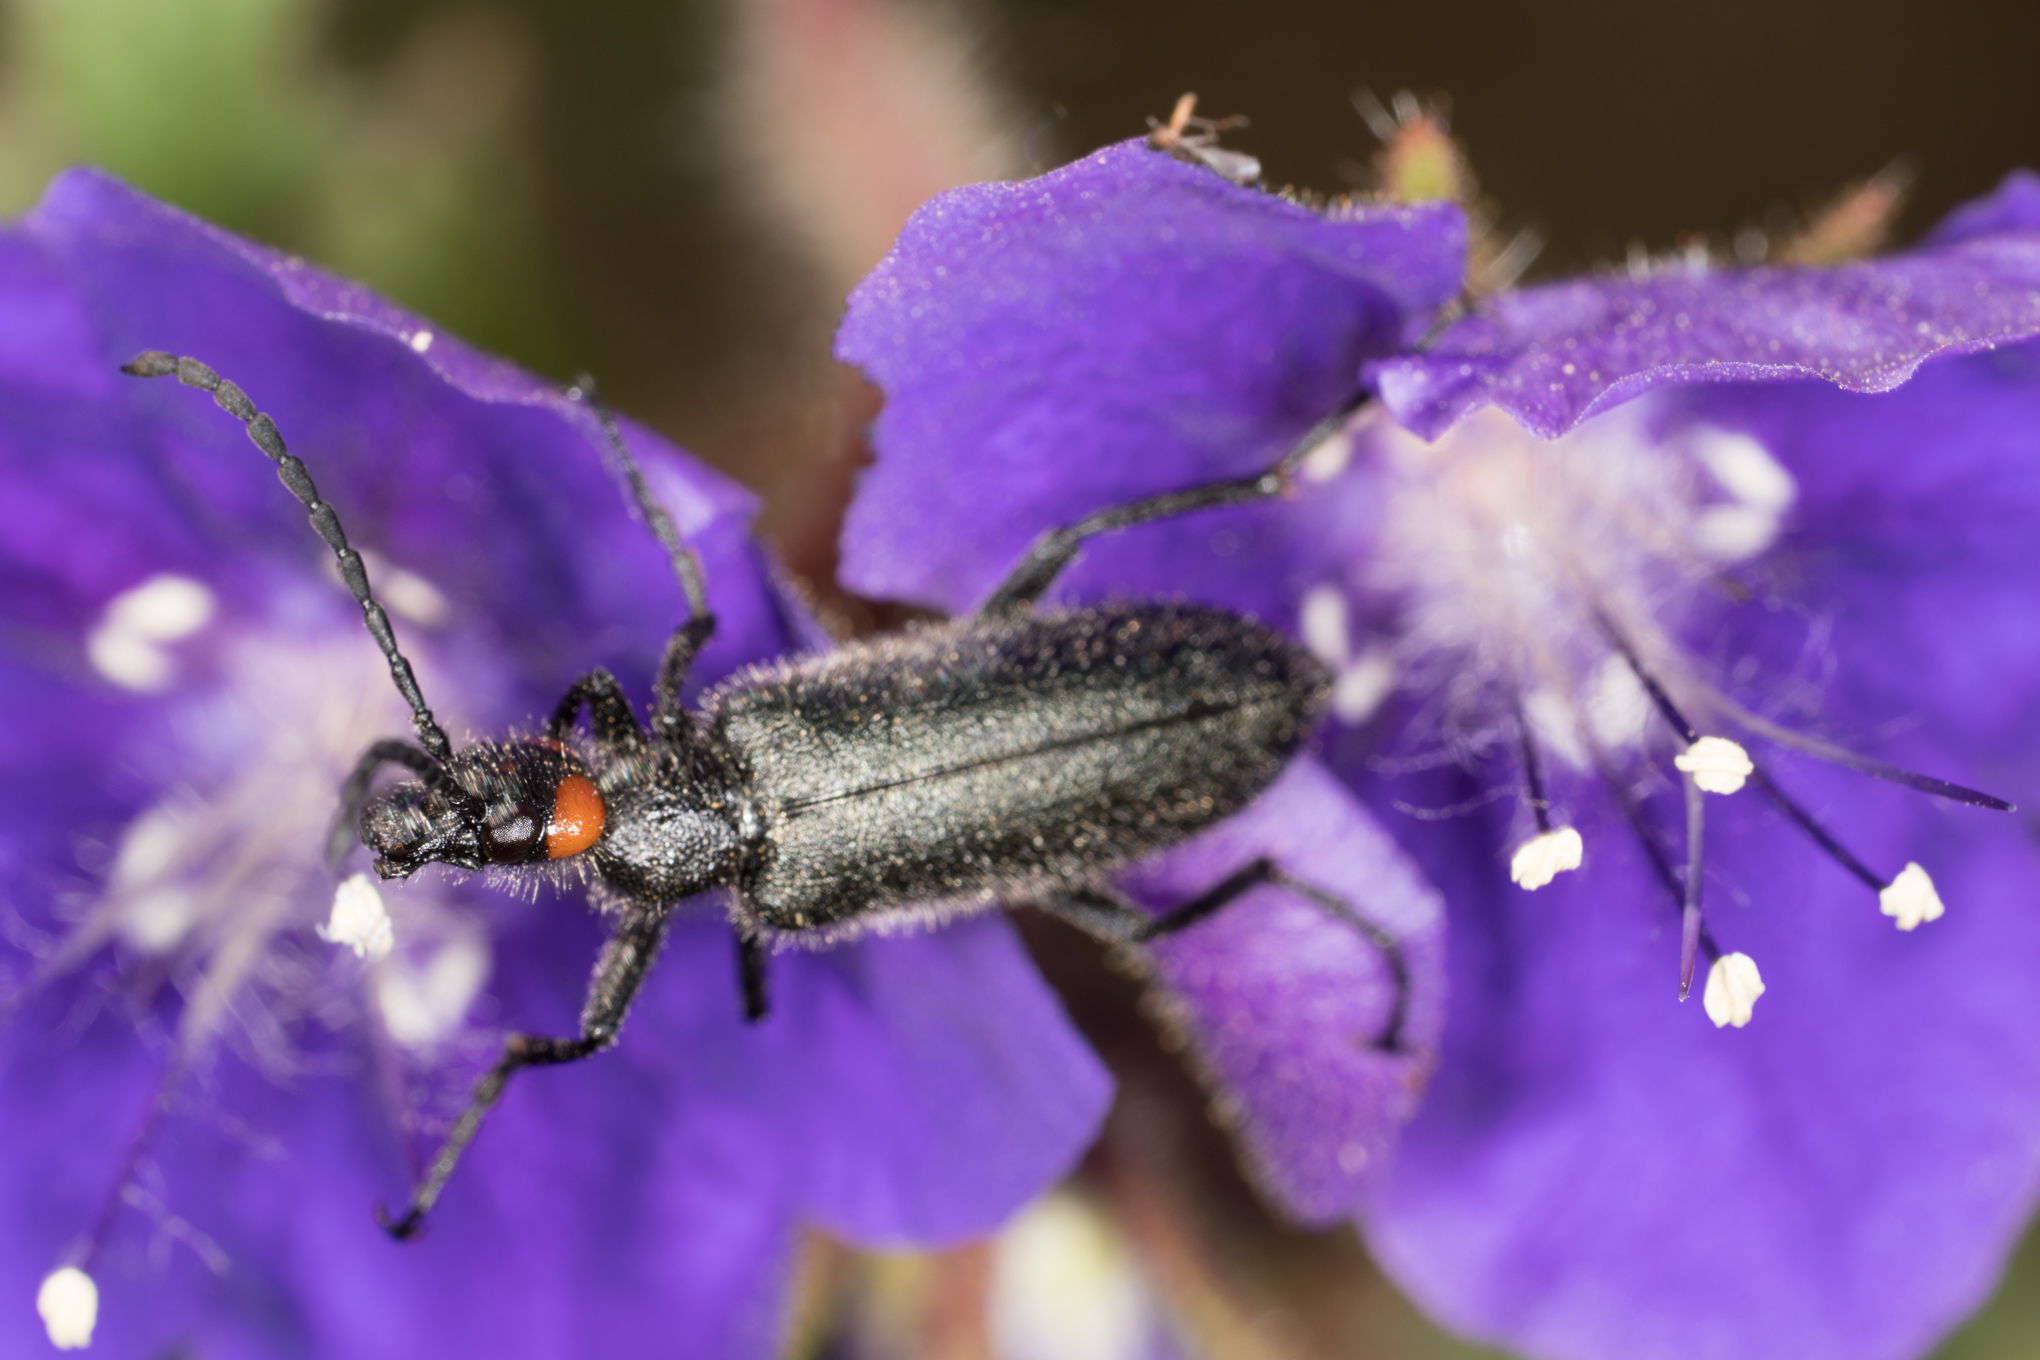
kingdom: Animalia
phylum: Arthropoda
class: Insecta
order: Coleoptera
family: Meloidae
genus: Lytta
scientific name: Lytta auriculata
